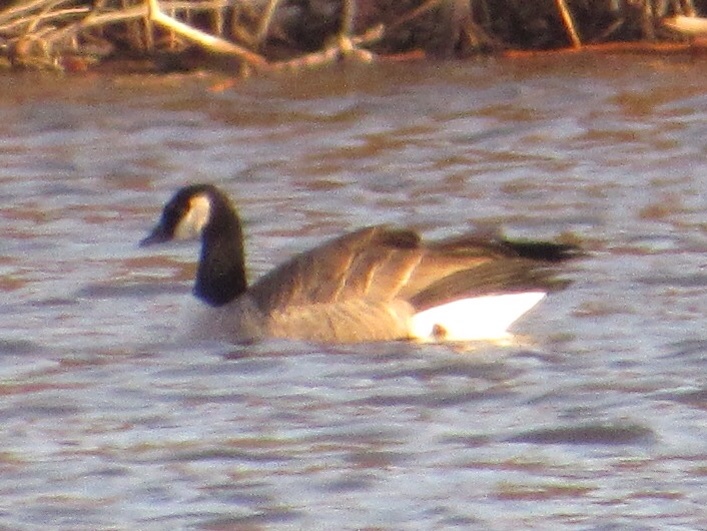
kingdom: Animalia
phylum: Chordata
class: Aves
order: Anseriformes
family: Anatidae
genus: Branta
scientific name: Branta hutchinsii
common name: Cackling goose
